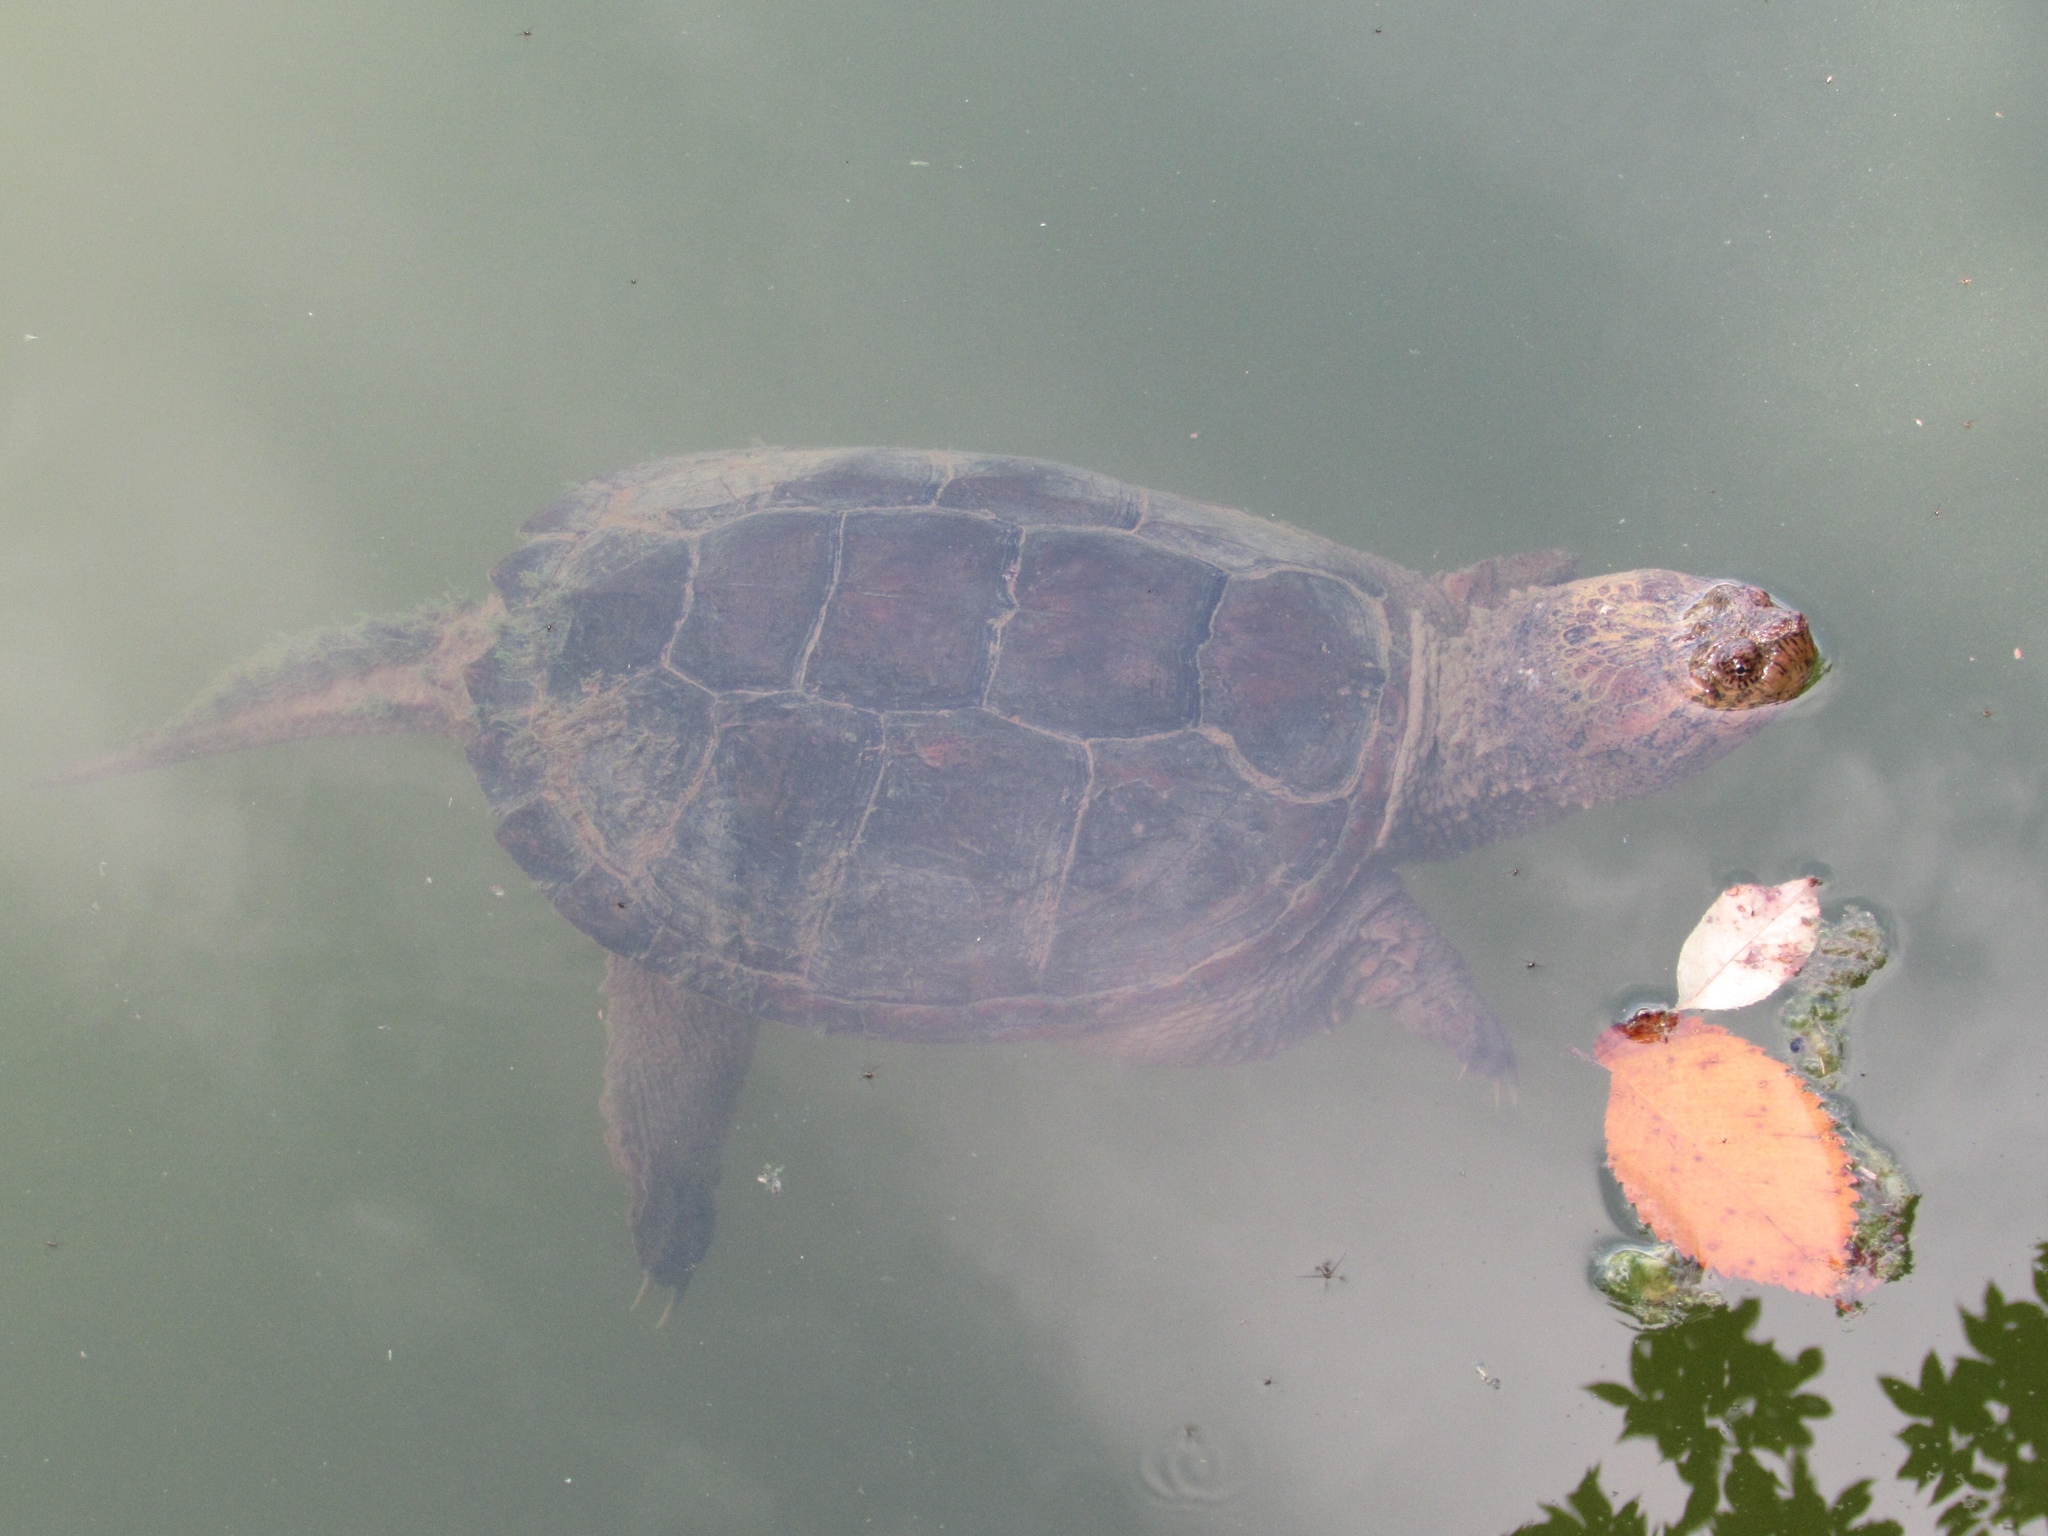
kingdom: Animalia
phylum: Chordata
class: Testudines
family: Chelydridae
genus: Chelydra
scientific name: Chelydra serpentina
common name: Common snapping turtle
